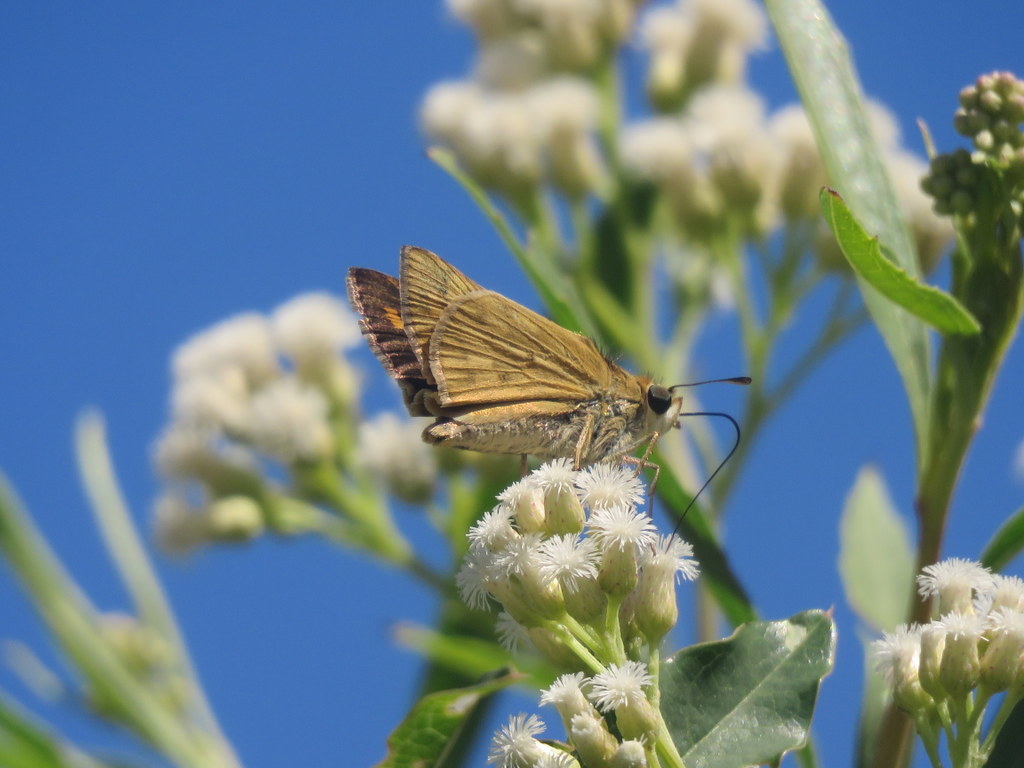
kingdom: Animalia
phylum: Arthropoda
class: Insecta
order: Lepidoptera
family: Hesperiidae
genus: Hylephila
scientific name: Hylephila phyleus
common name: Fiery skipper
